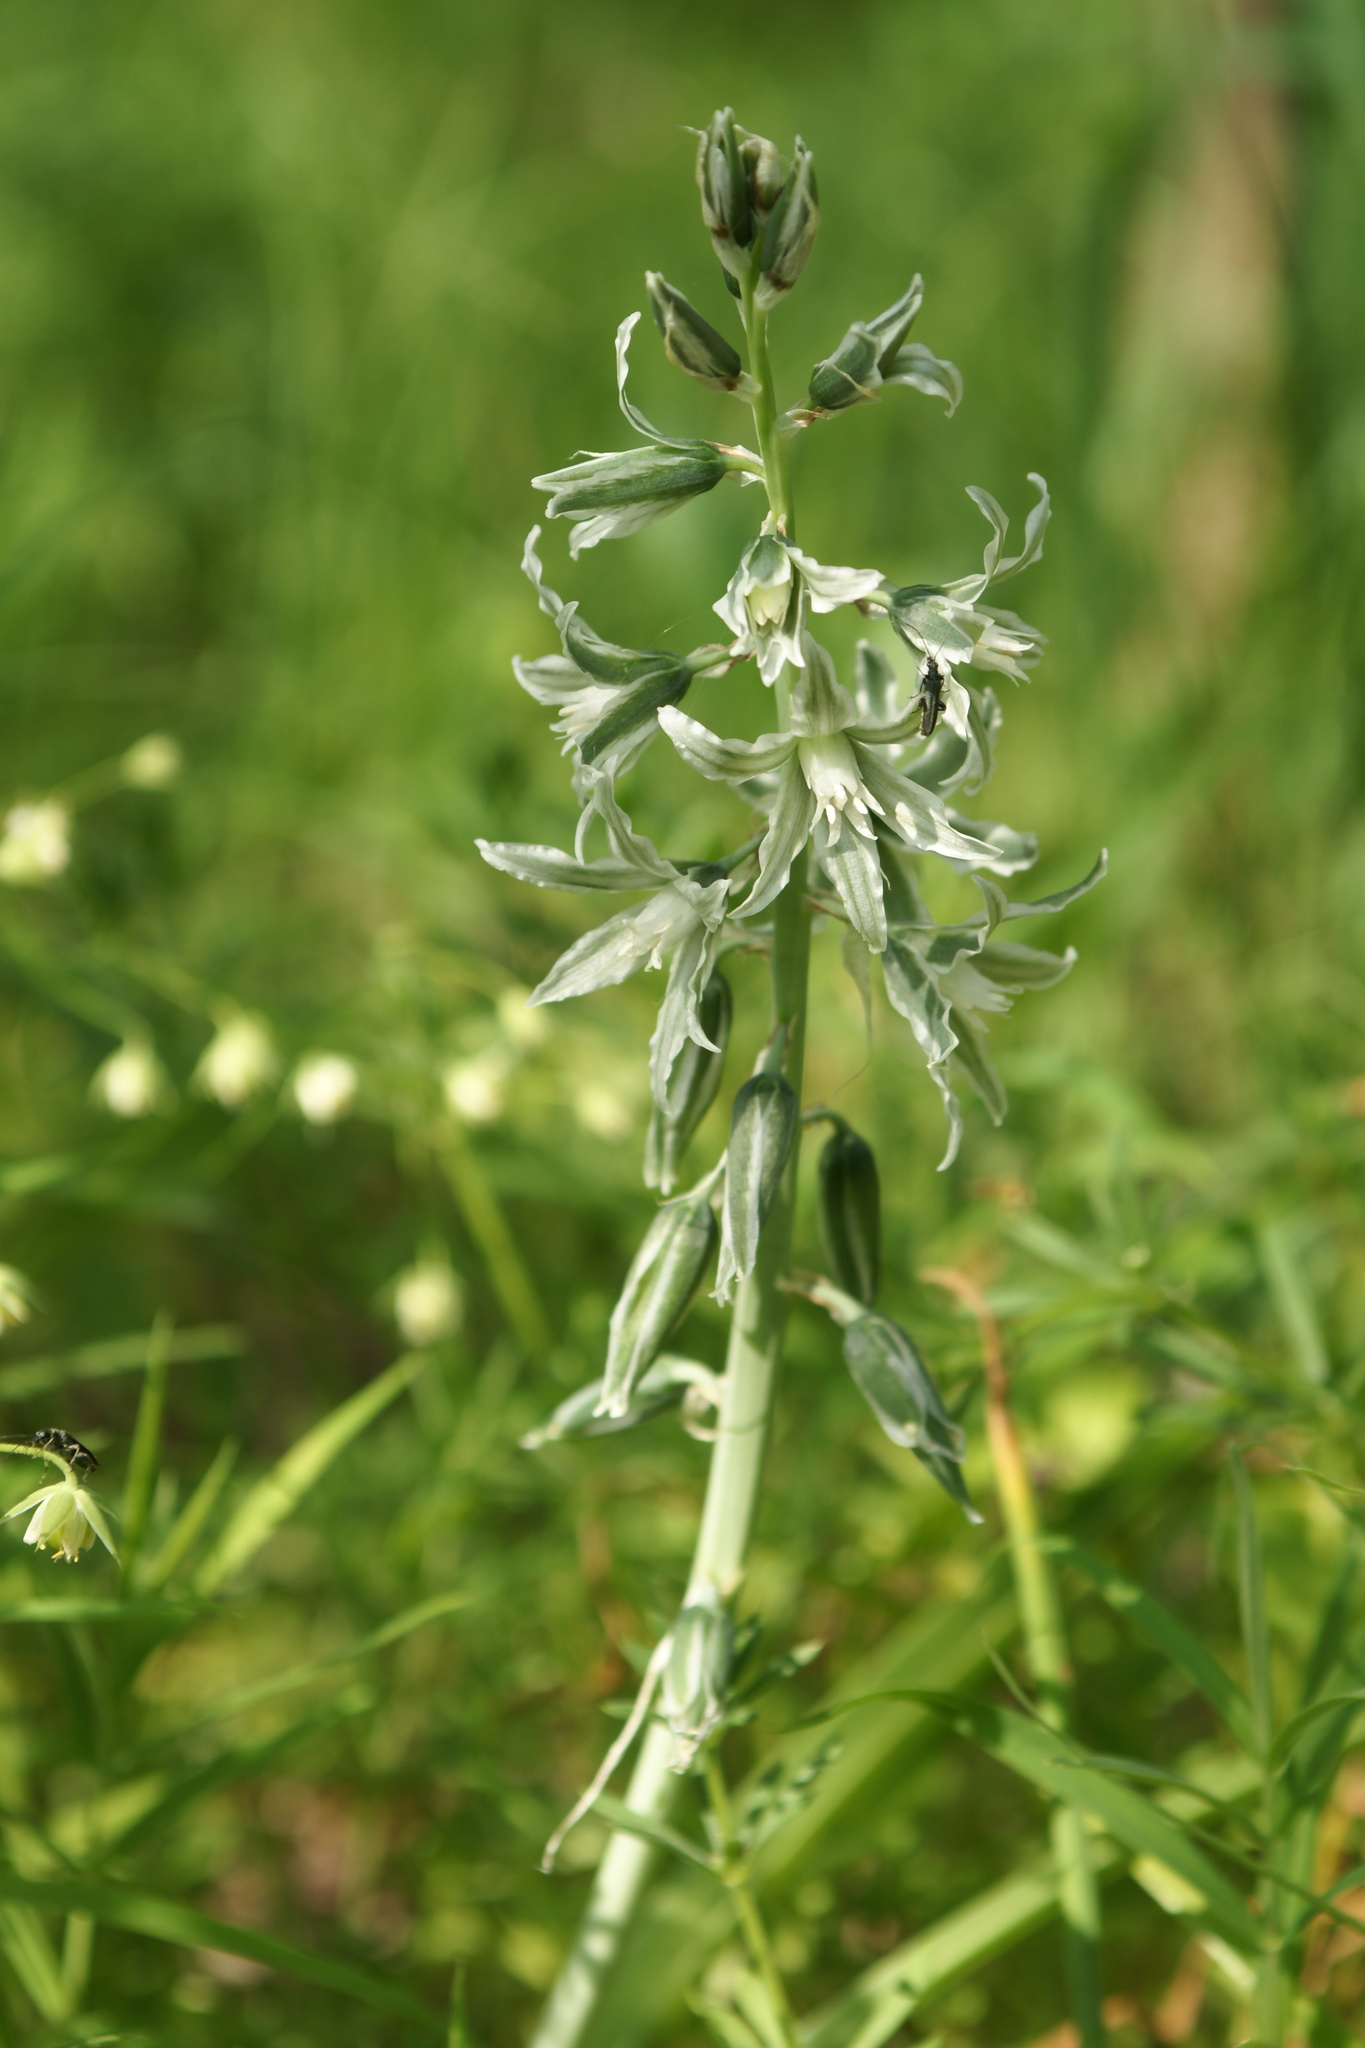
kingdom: Plantae
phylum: Tracheophyta
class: Liliopsida
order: Asparagales
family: Asparagaceae
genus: Ornithogalum
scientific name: Ornithogalum boucheanum
